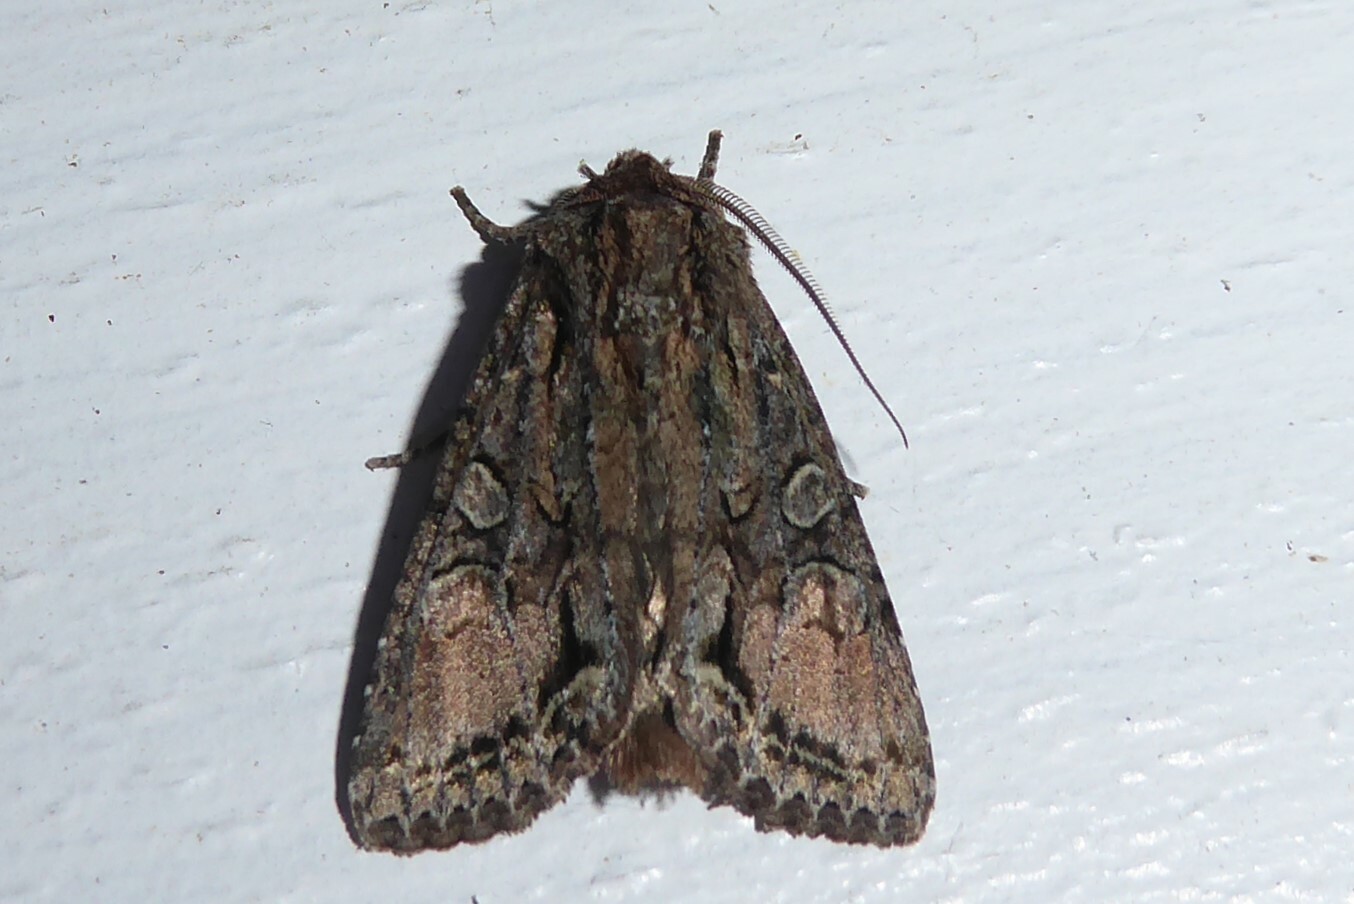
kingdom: Animalia
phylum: Arthropoda
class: Insecta
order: Lepidoptera
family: Noctuidae
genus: Ichneutica
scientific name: Ichneutica mutans
